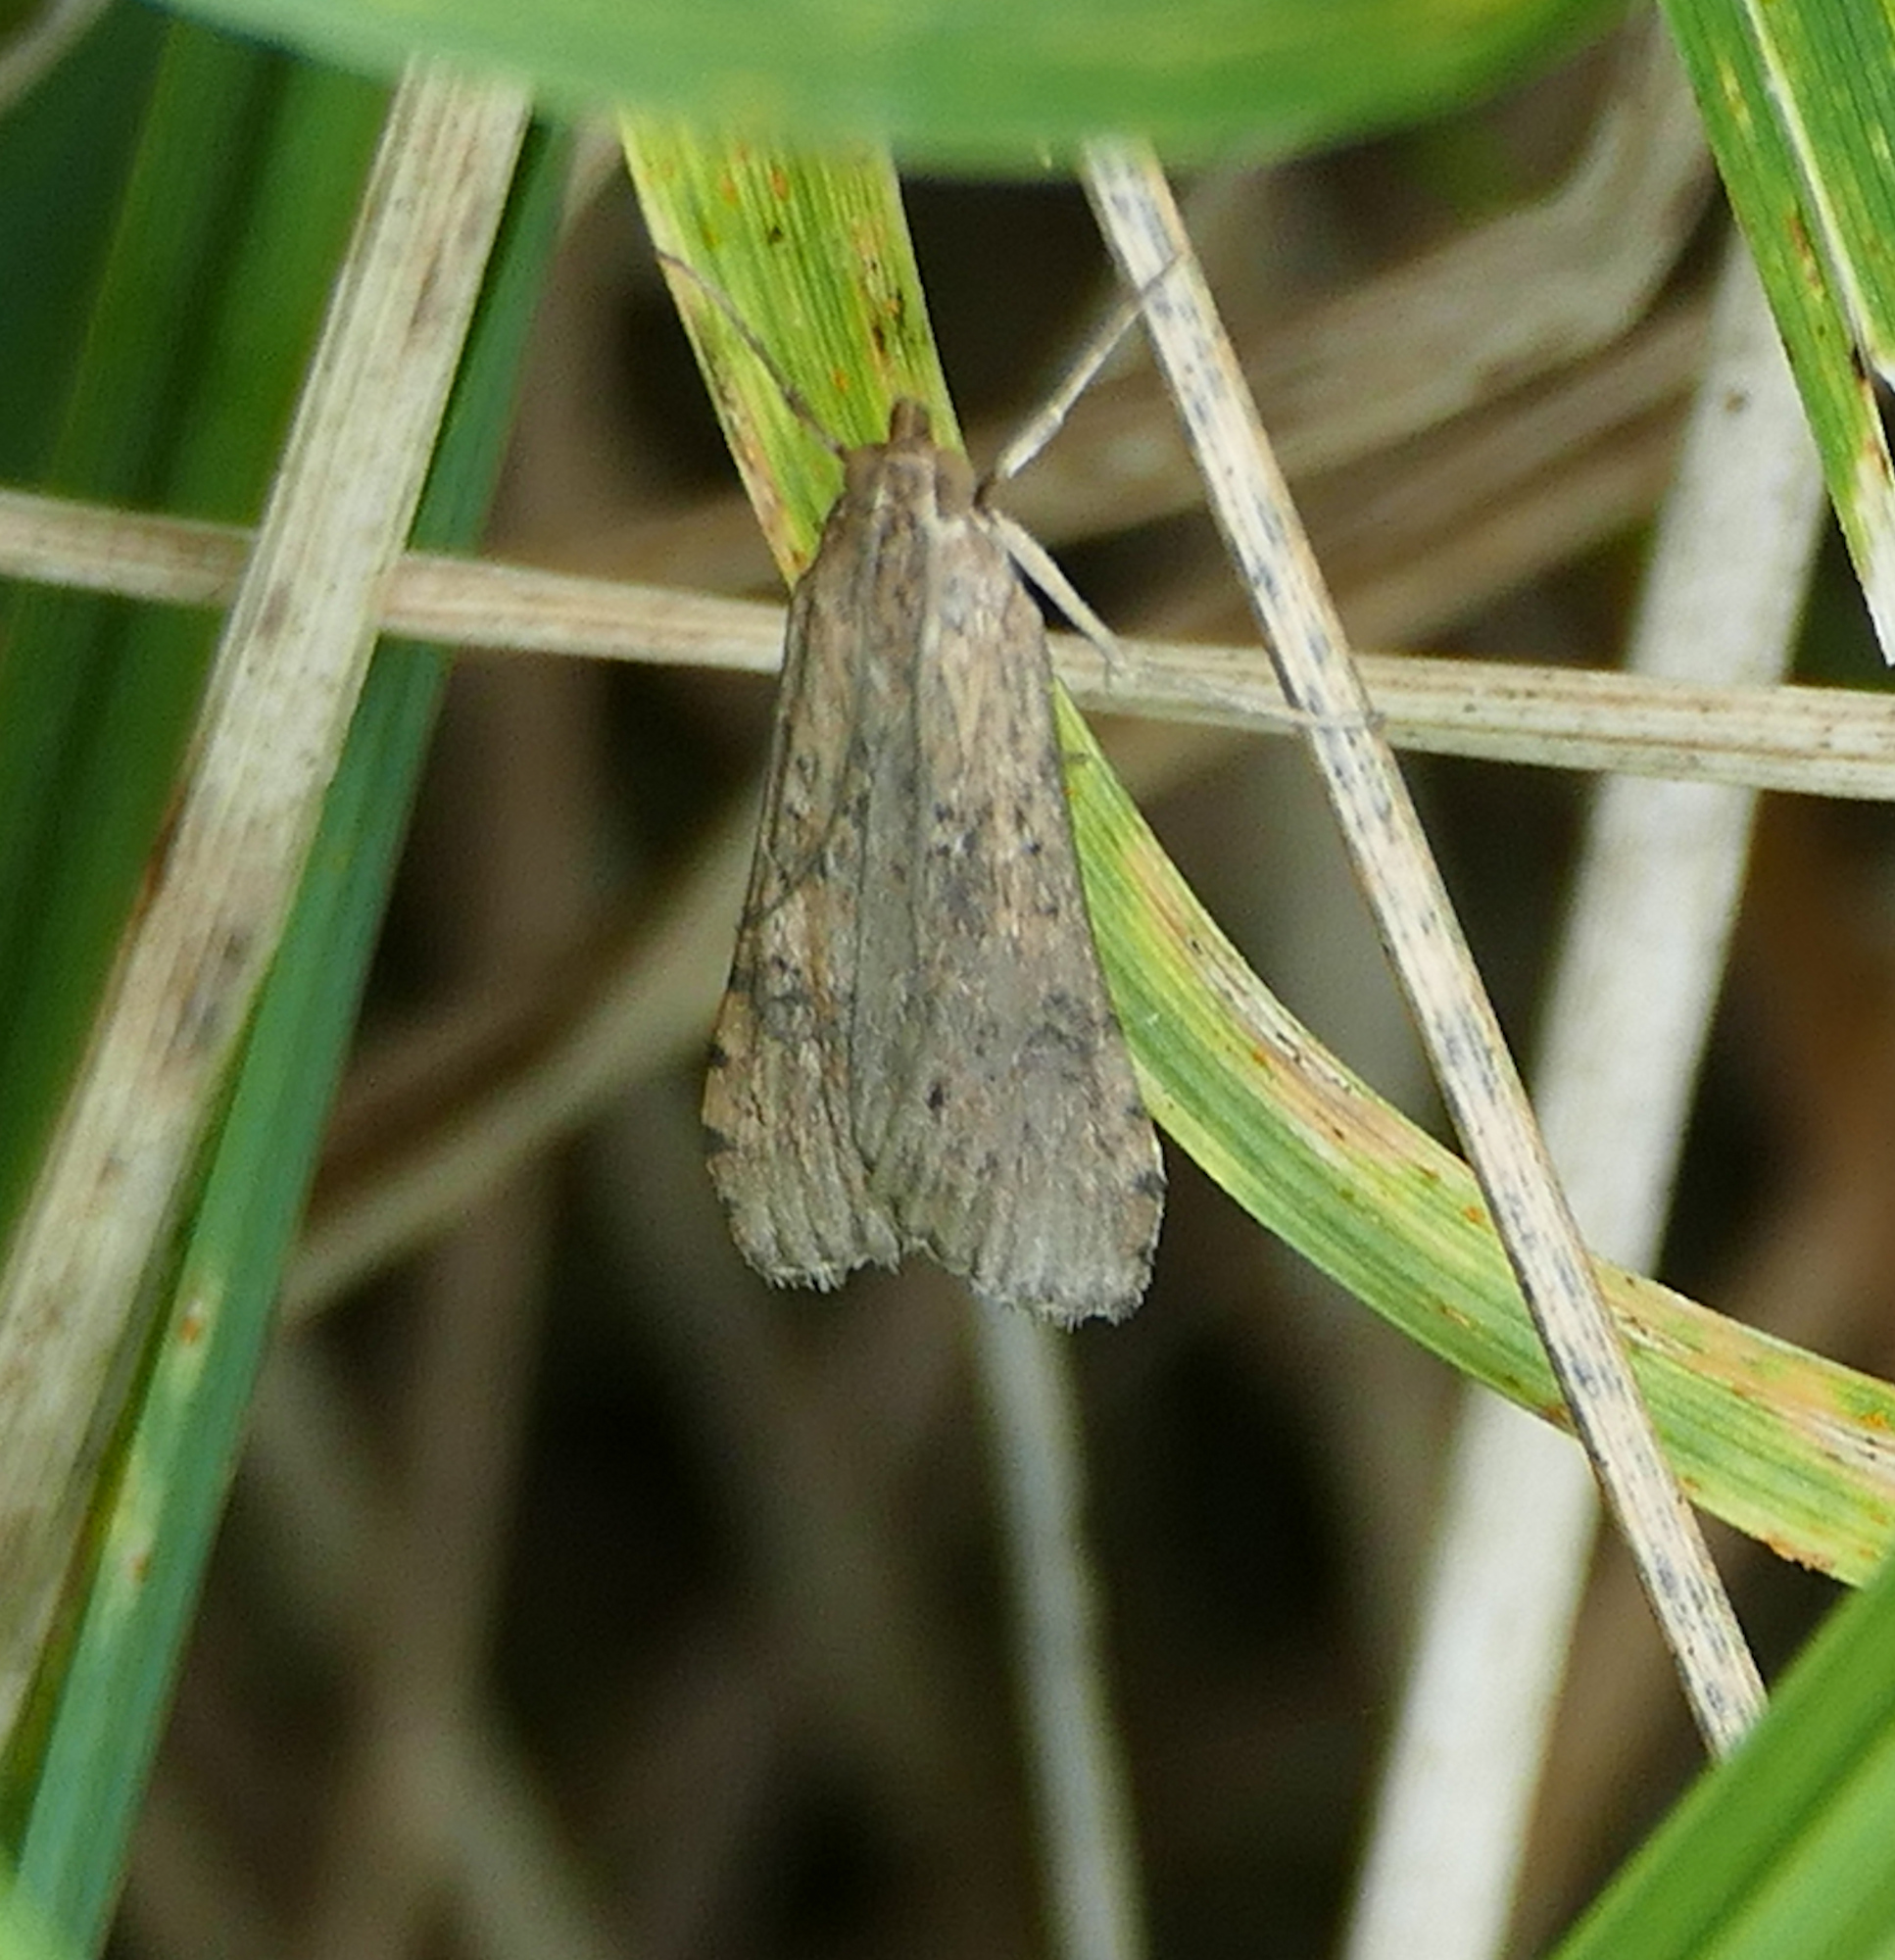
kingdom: Animalia
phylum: Arthropoda
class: Insecta
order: Lepidoptera
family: Crambidae
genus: Nomophila
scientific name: Nomophila nearctica
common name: American rush veneer
